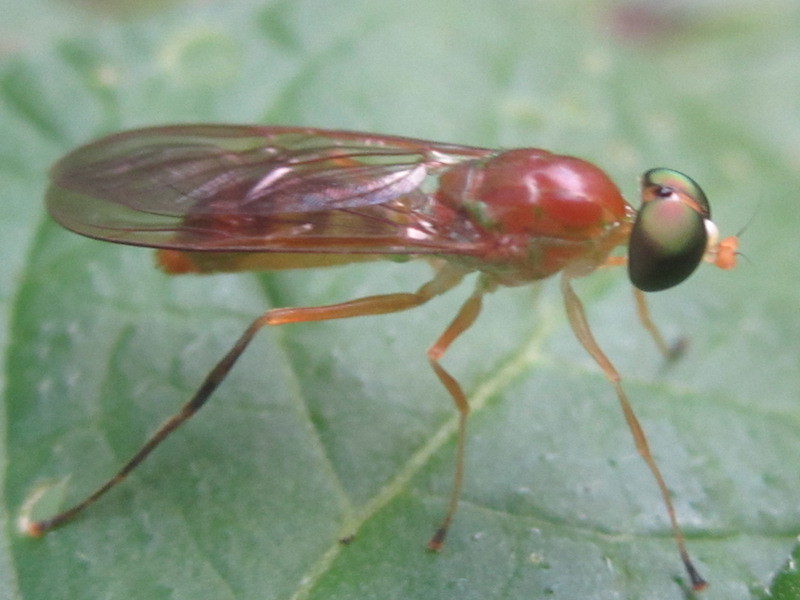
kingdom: Animalia
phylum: Arthropoda
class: Insecta
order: Diptera
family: Stratiomyidae
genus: Ptecticus
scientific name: Ptecticus trivittatus
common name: Compost fly
